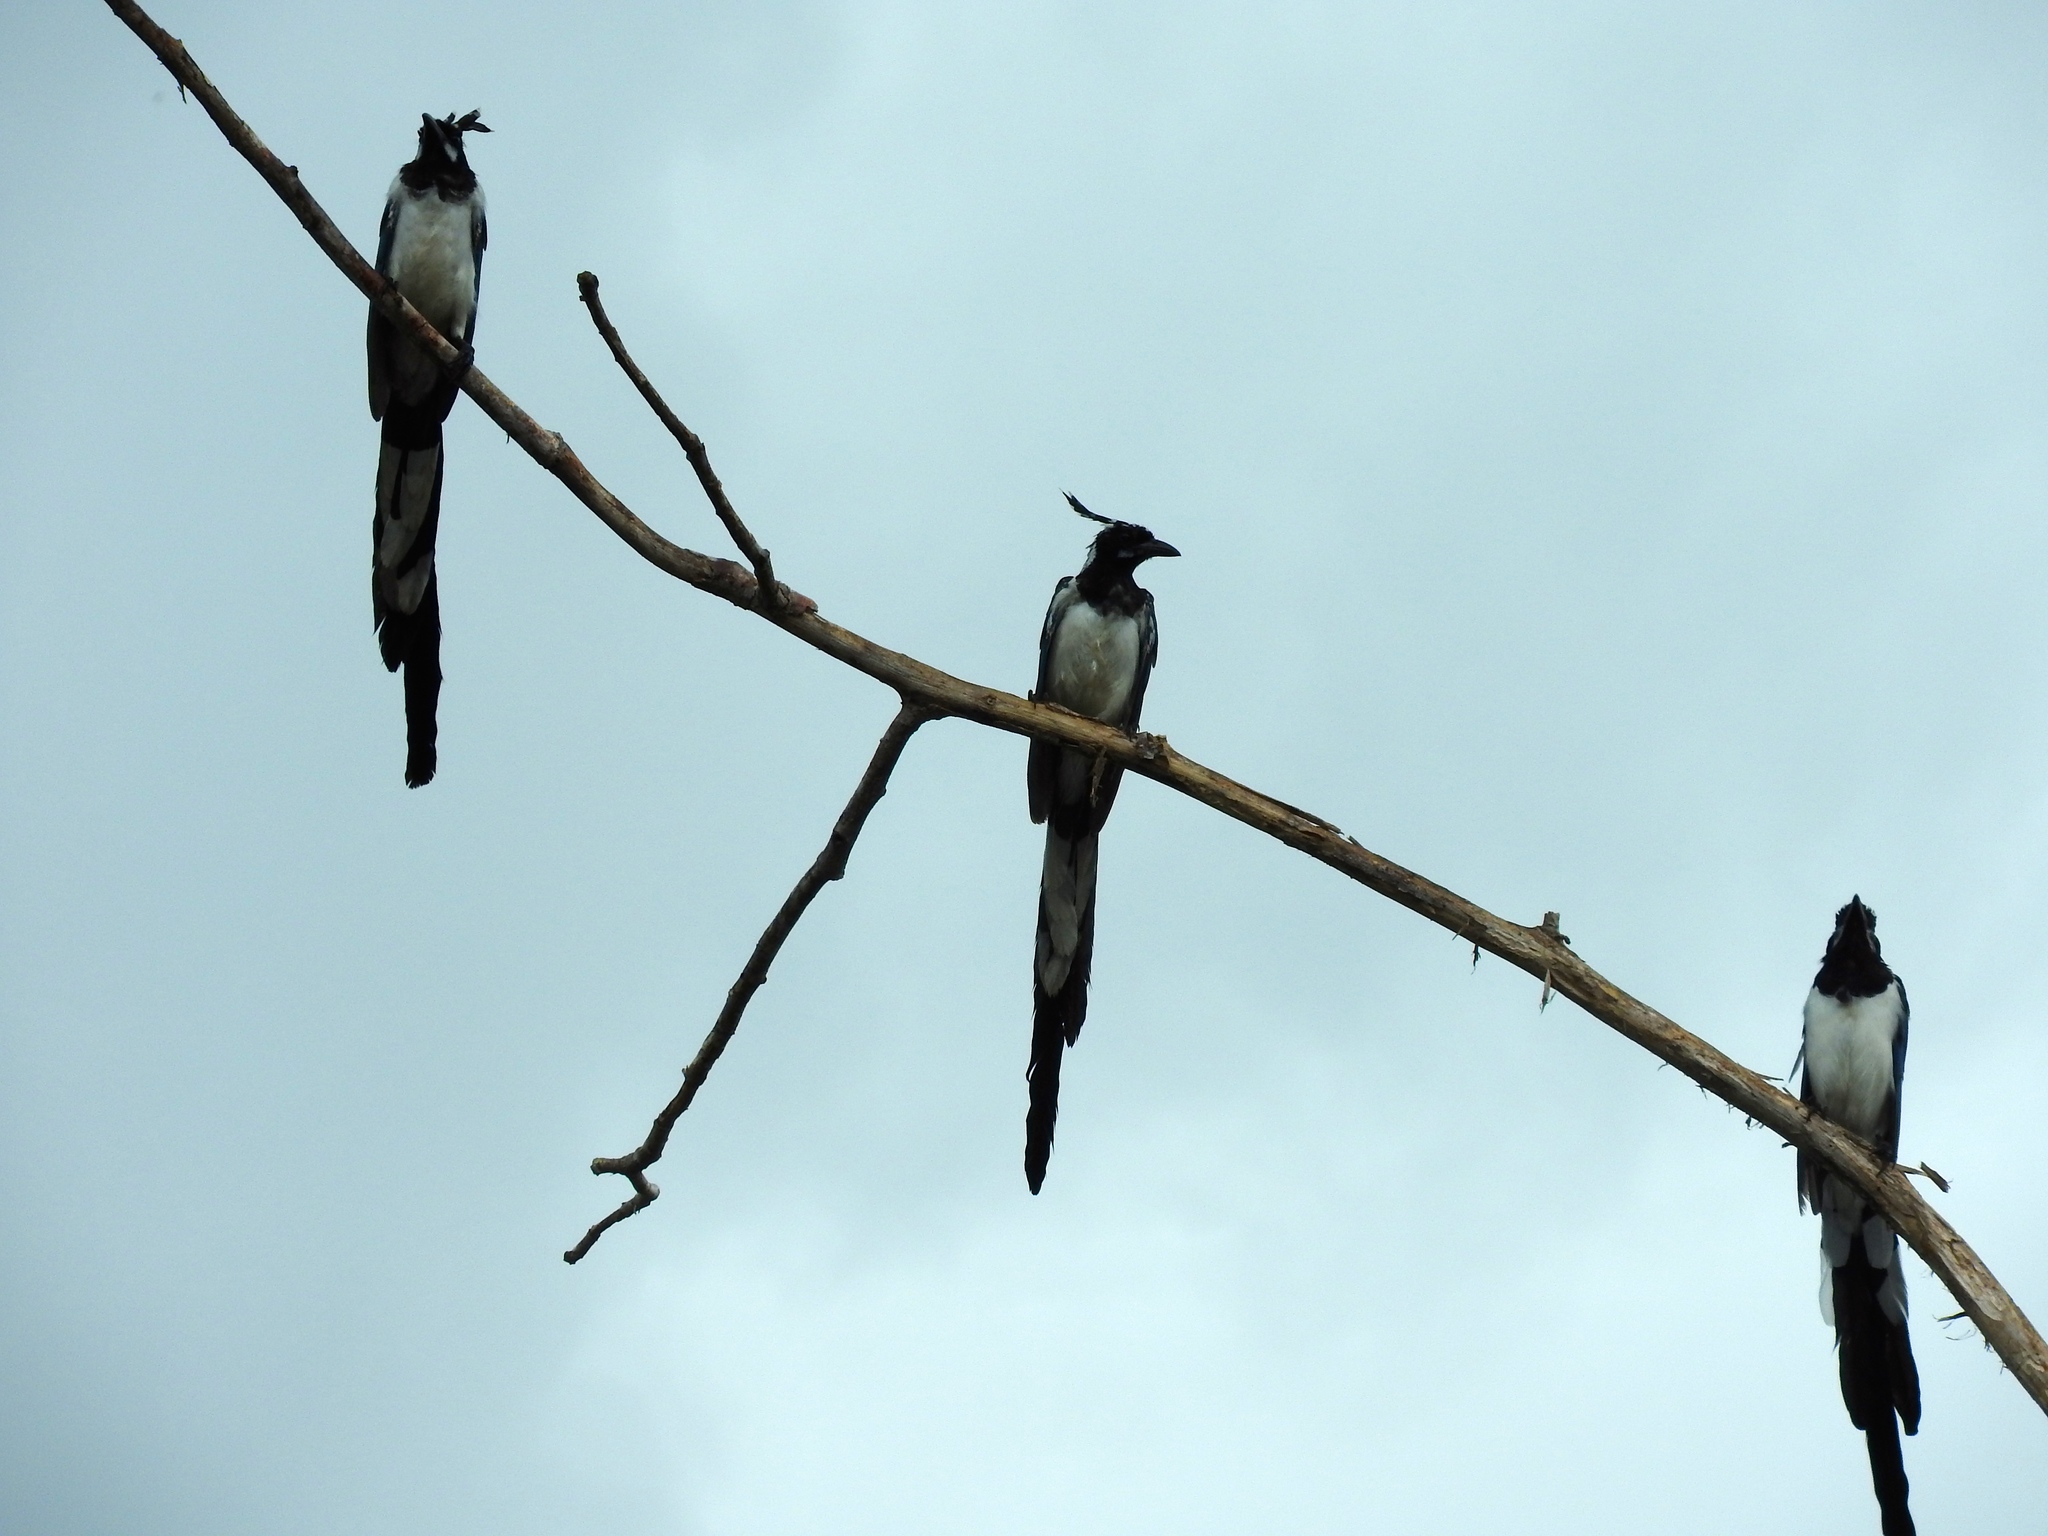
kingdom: Animalia
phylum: Chordata
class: Aves
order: Passeriformes
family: Corvidae
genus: Calocitta
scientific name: Calocitta colliei
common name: Black-throated magpie-jay
